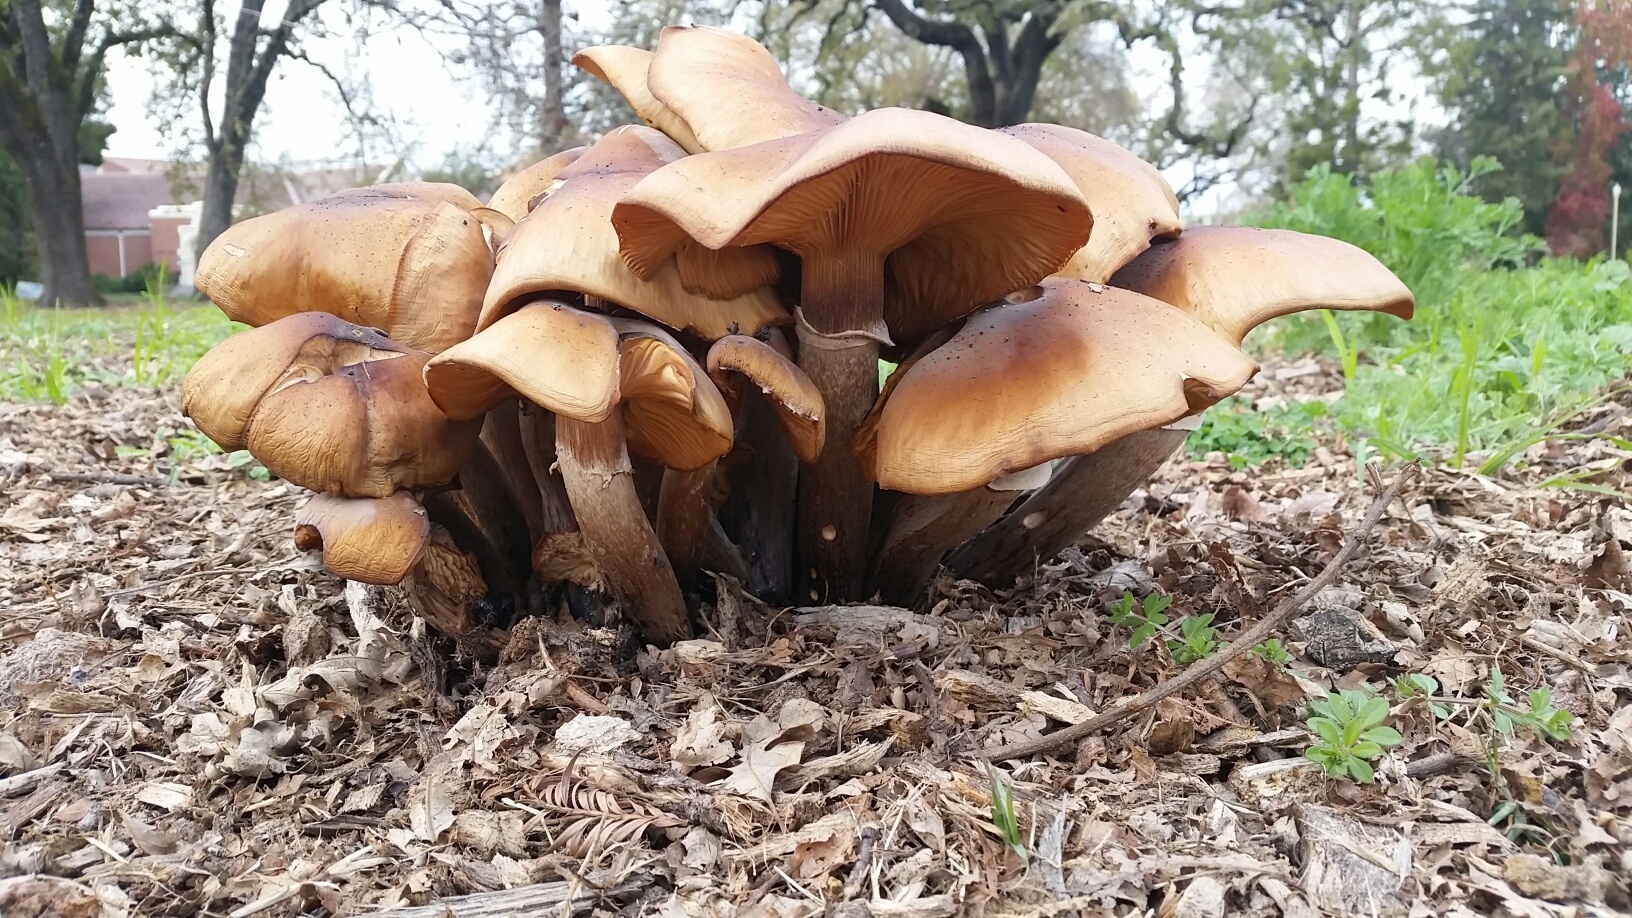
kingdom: Fungi
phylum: Basidiomycota
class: Agaricomycetes
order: Agaricales
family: Physalacriaceae
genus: Armillaria
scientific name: Armillaria mellea
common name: Honey fungus
